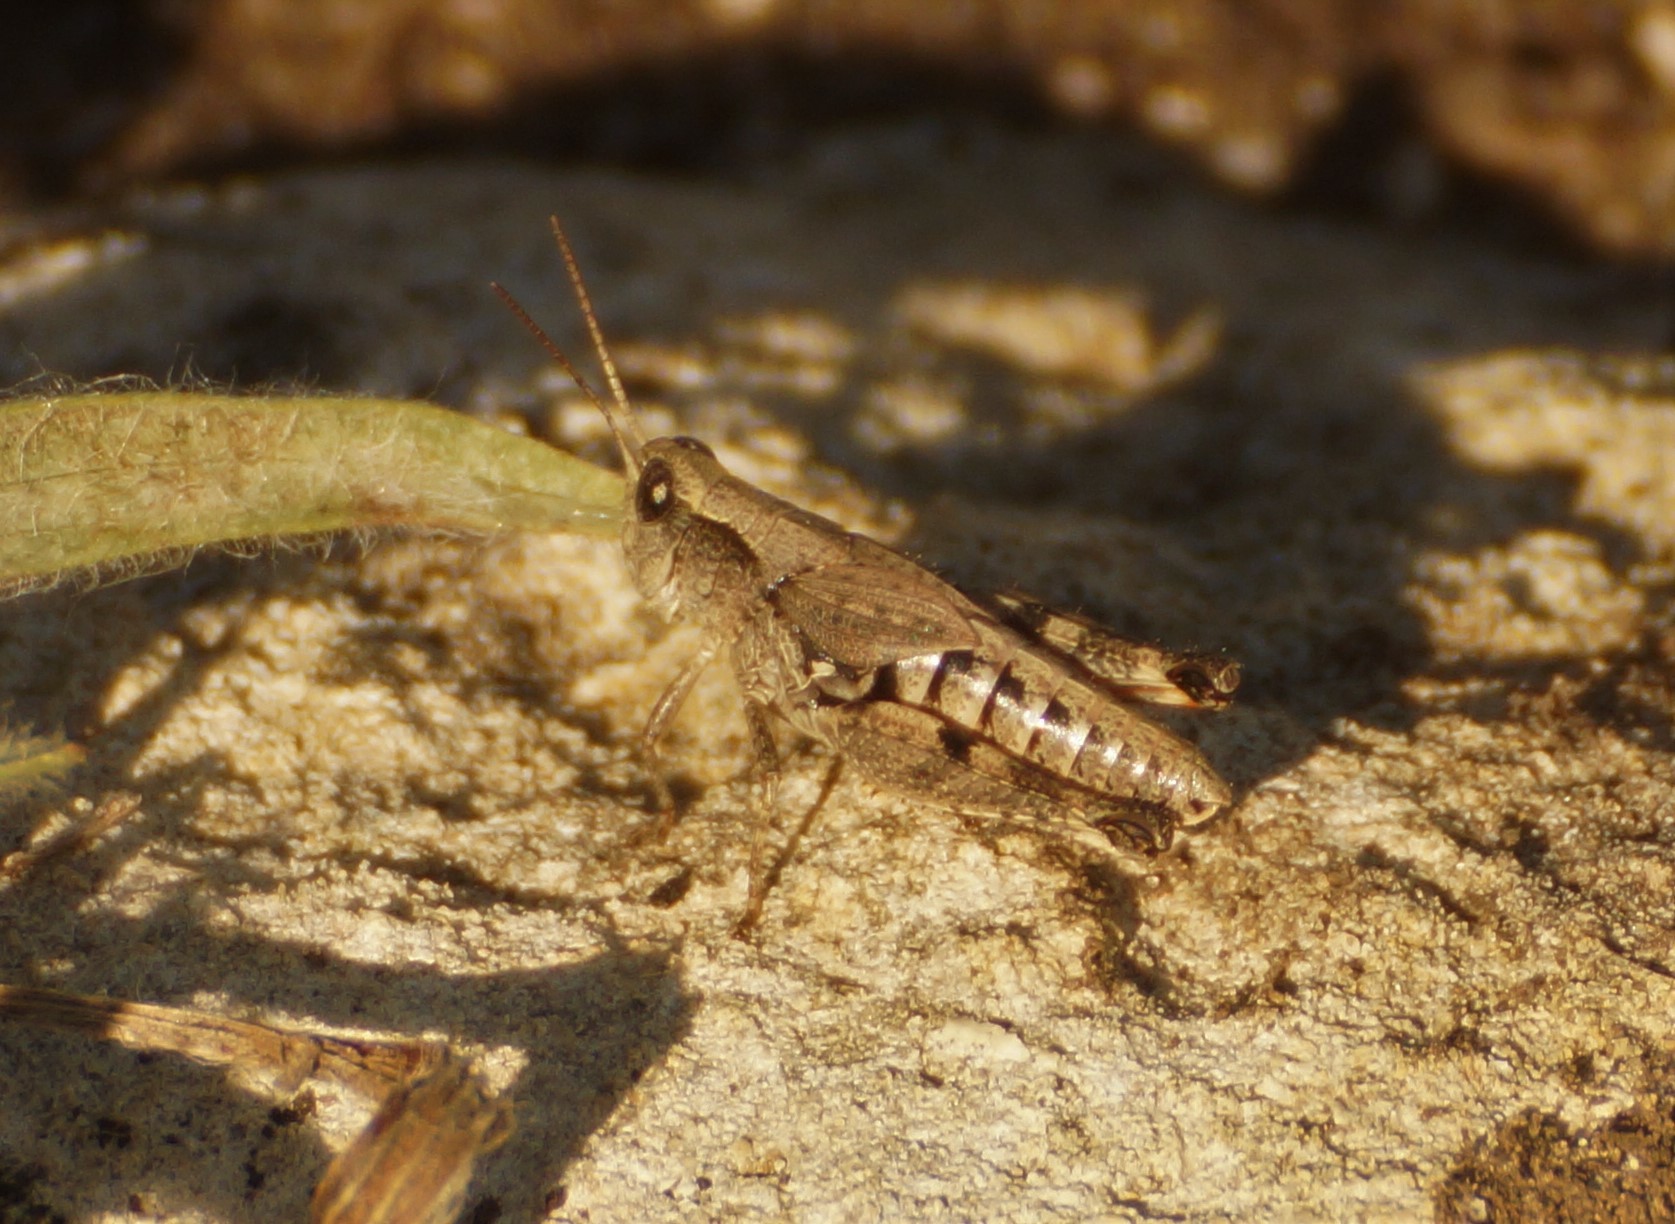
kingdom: Animalia
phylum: Arthropoda
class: Insecta
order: Orthoptera
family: Acrididae
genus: Phaulacridium
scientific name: Phaulacridium vittatum
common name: Wingless grasshopper
